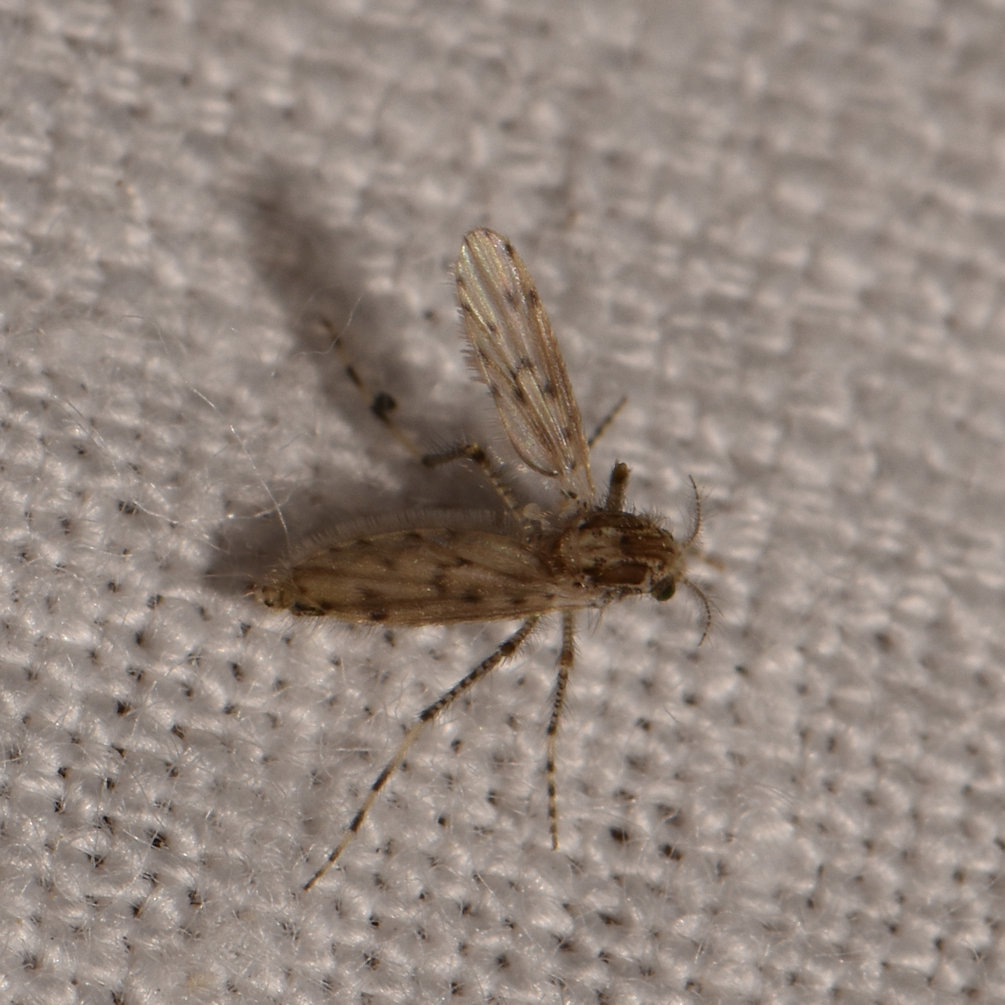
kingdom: Animalia
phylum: Arthropoda
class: Insecta
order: Diptera
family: Chaoboridae
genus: Chaoborus
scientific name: Chaoborus punctipennis
